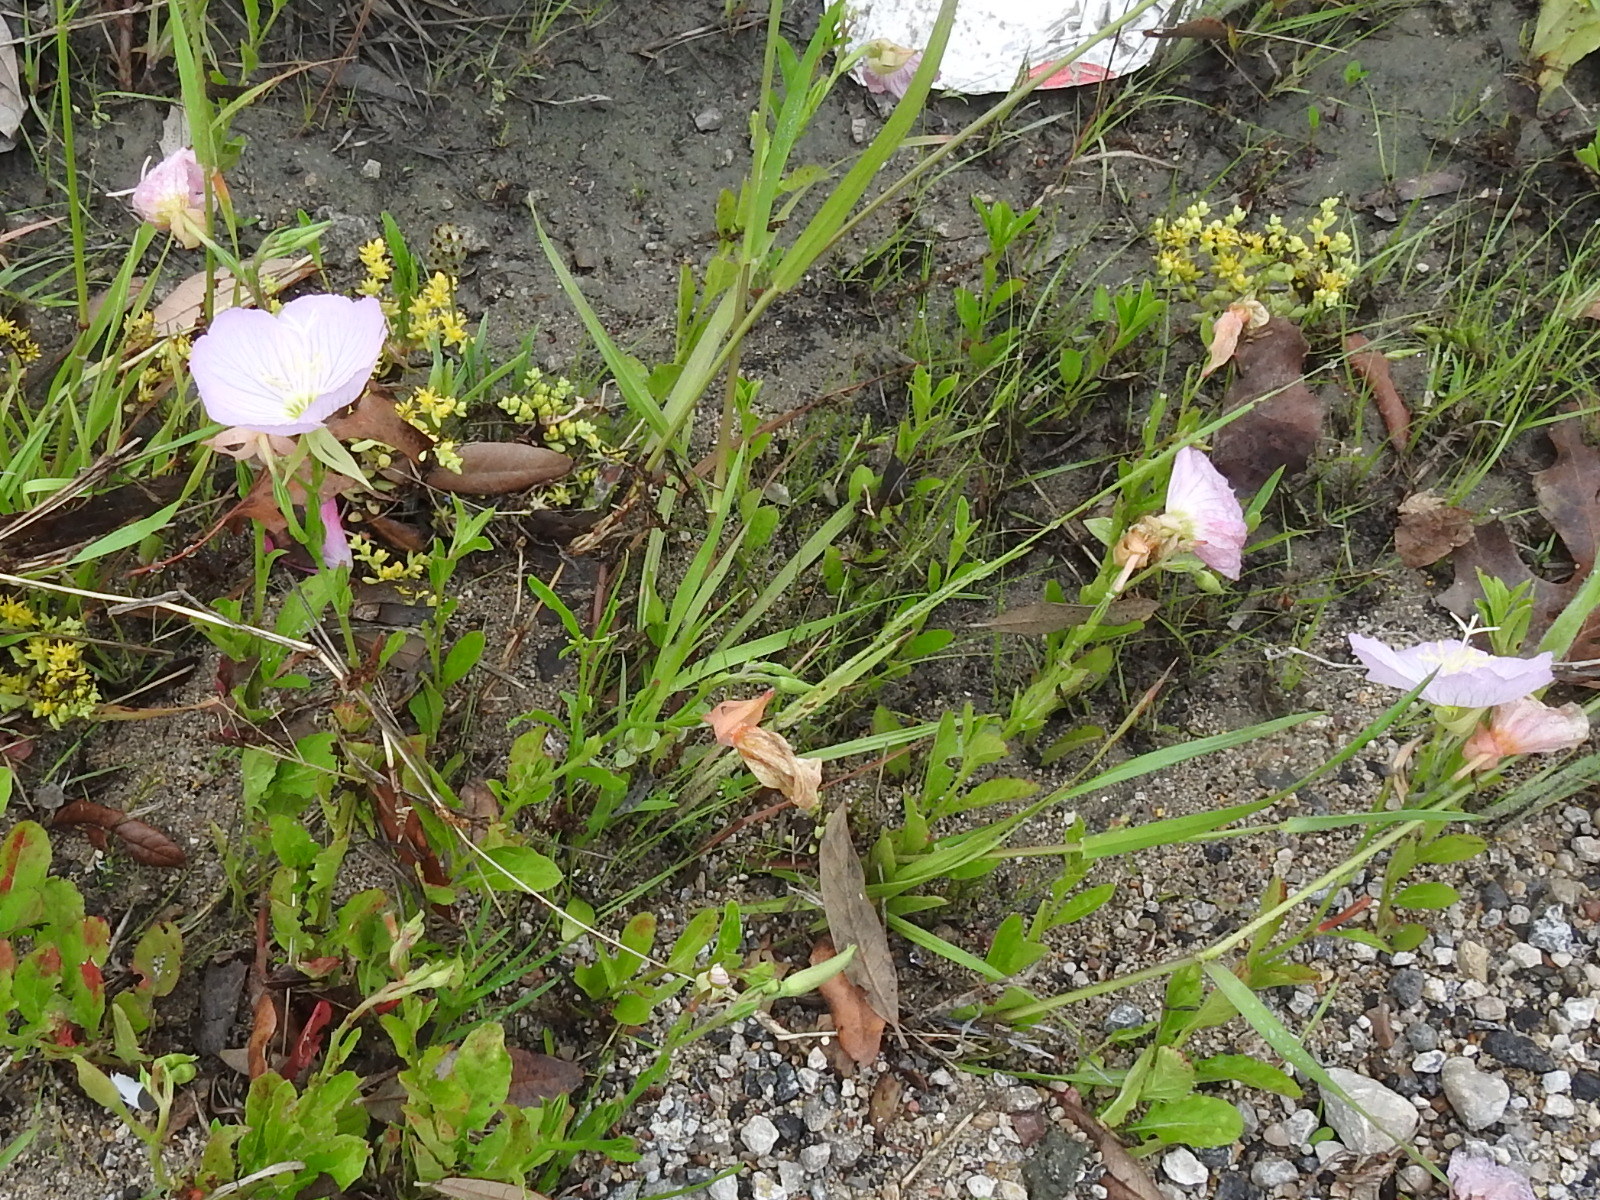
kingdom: Plantae
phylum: Tracheophyta
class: Magnoliopsida
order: Myrtales
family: Onagraceae
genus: Oenothera
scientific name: Oenothera speciosa
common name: White evening-primrose
